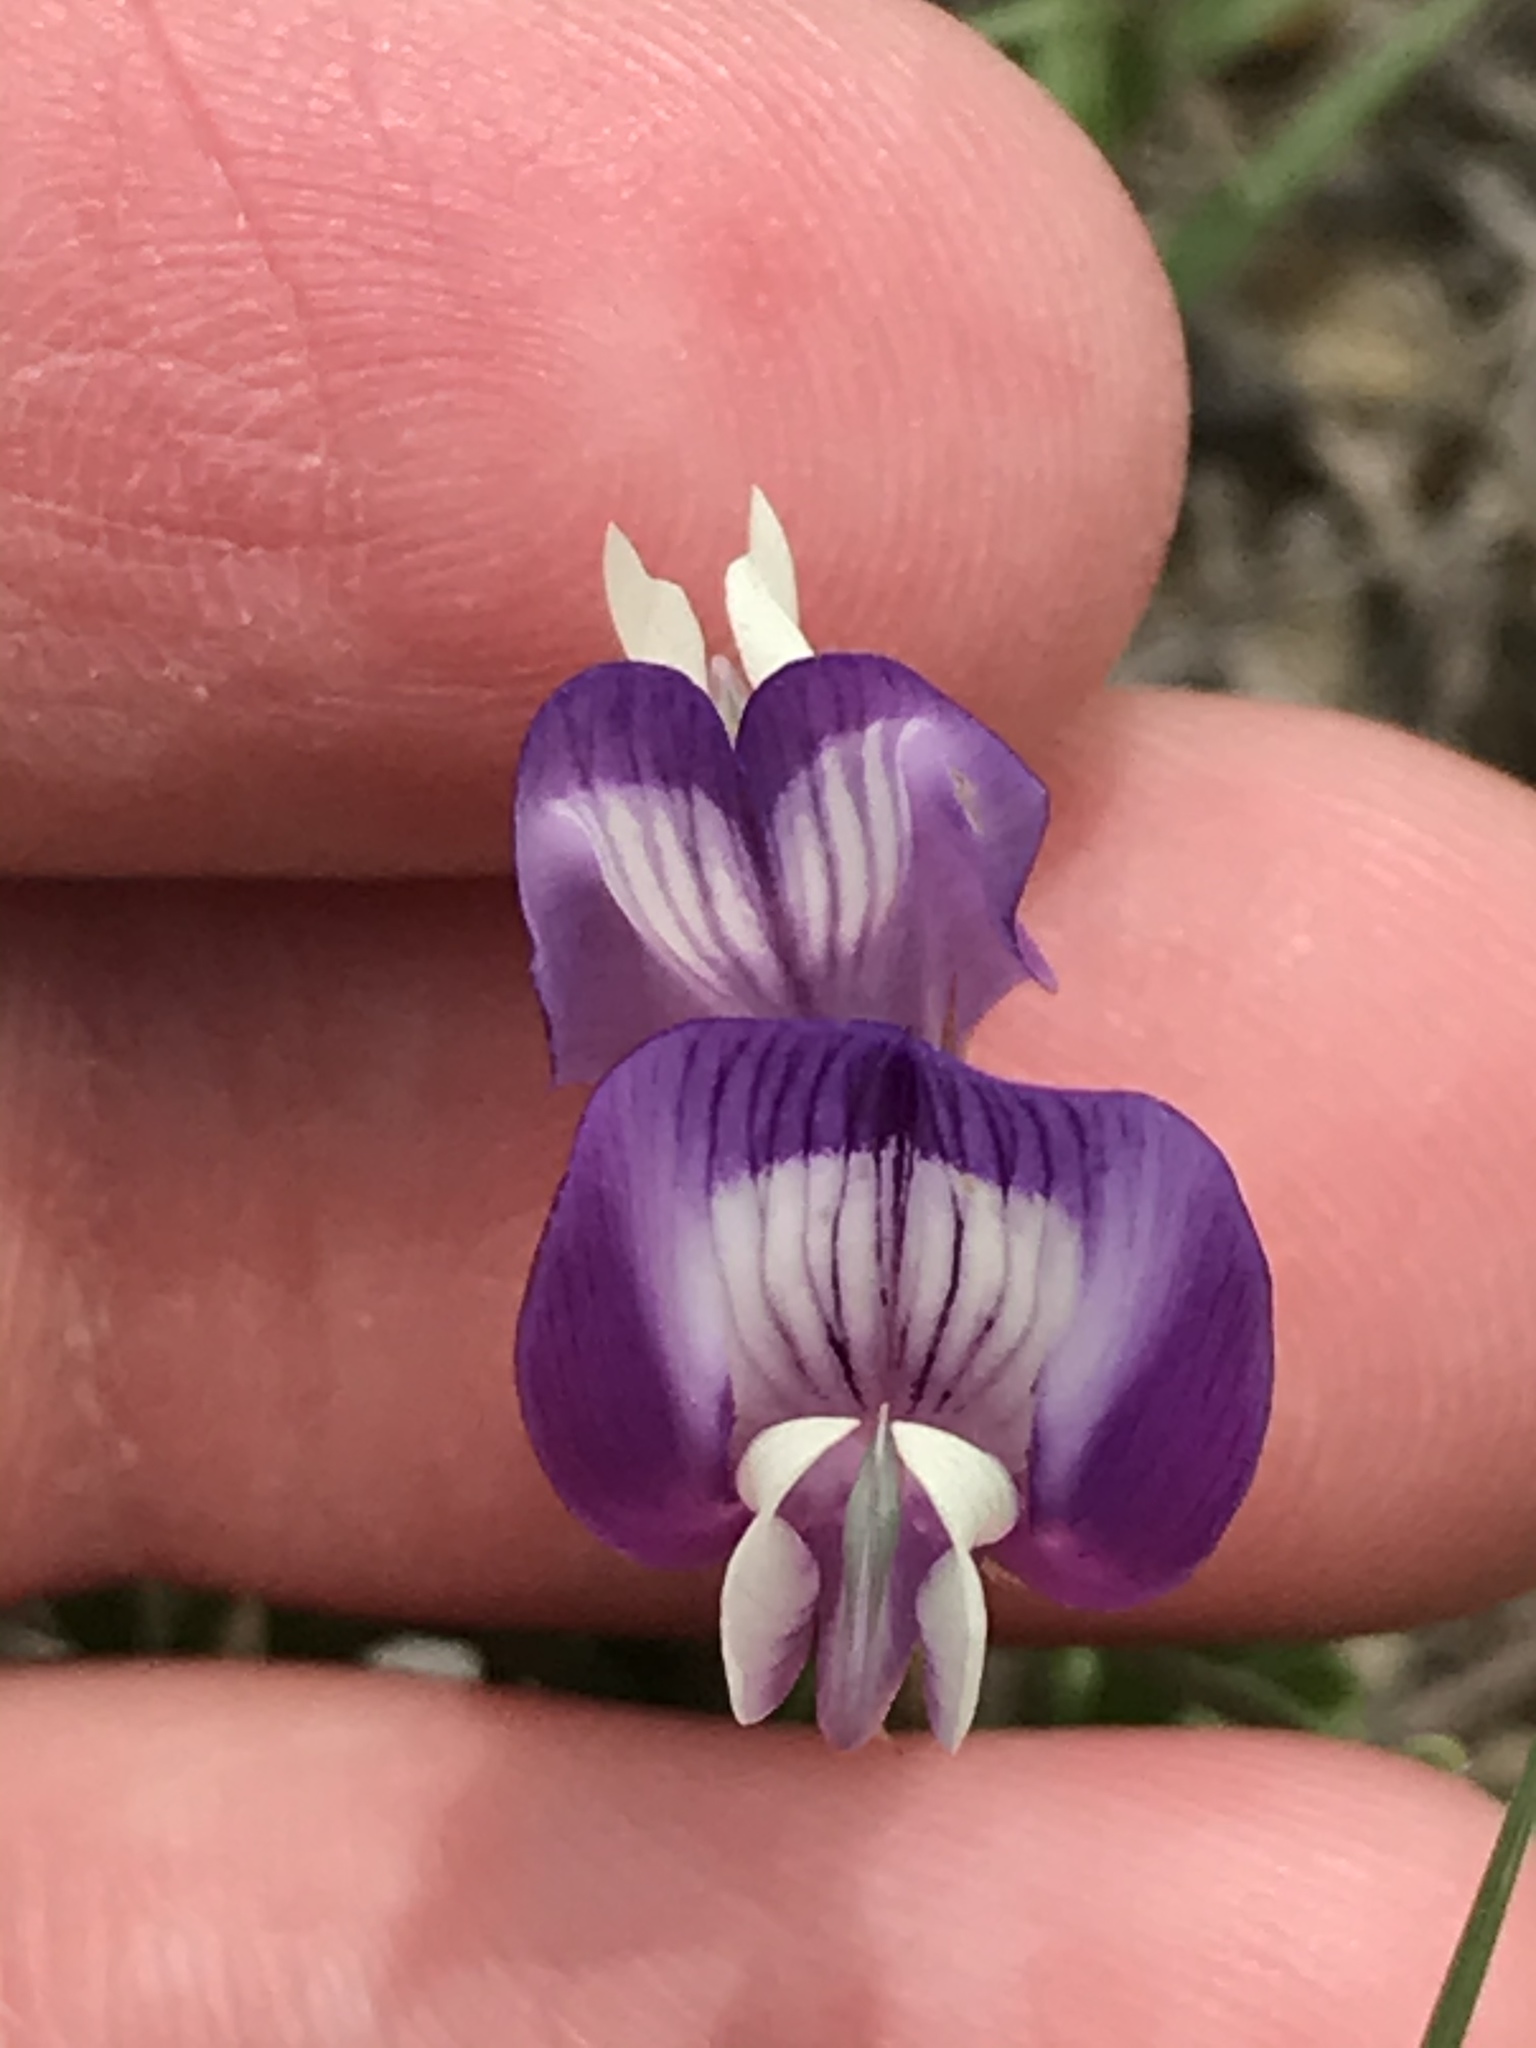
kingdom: Plantae
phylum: Tracheophyta
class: Magnoliopsida
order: Fabales
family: Fabaceae
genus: Astragalus
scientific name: Astragalus lindheimeri
